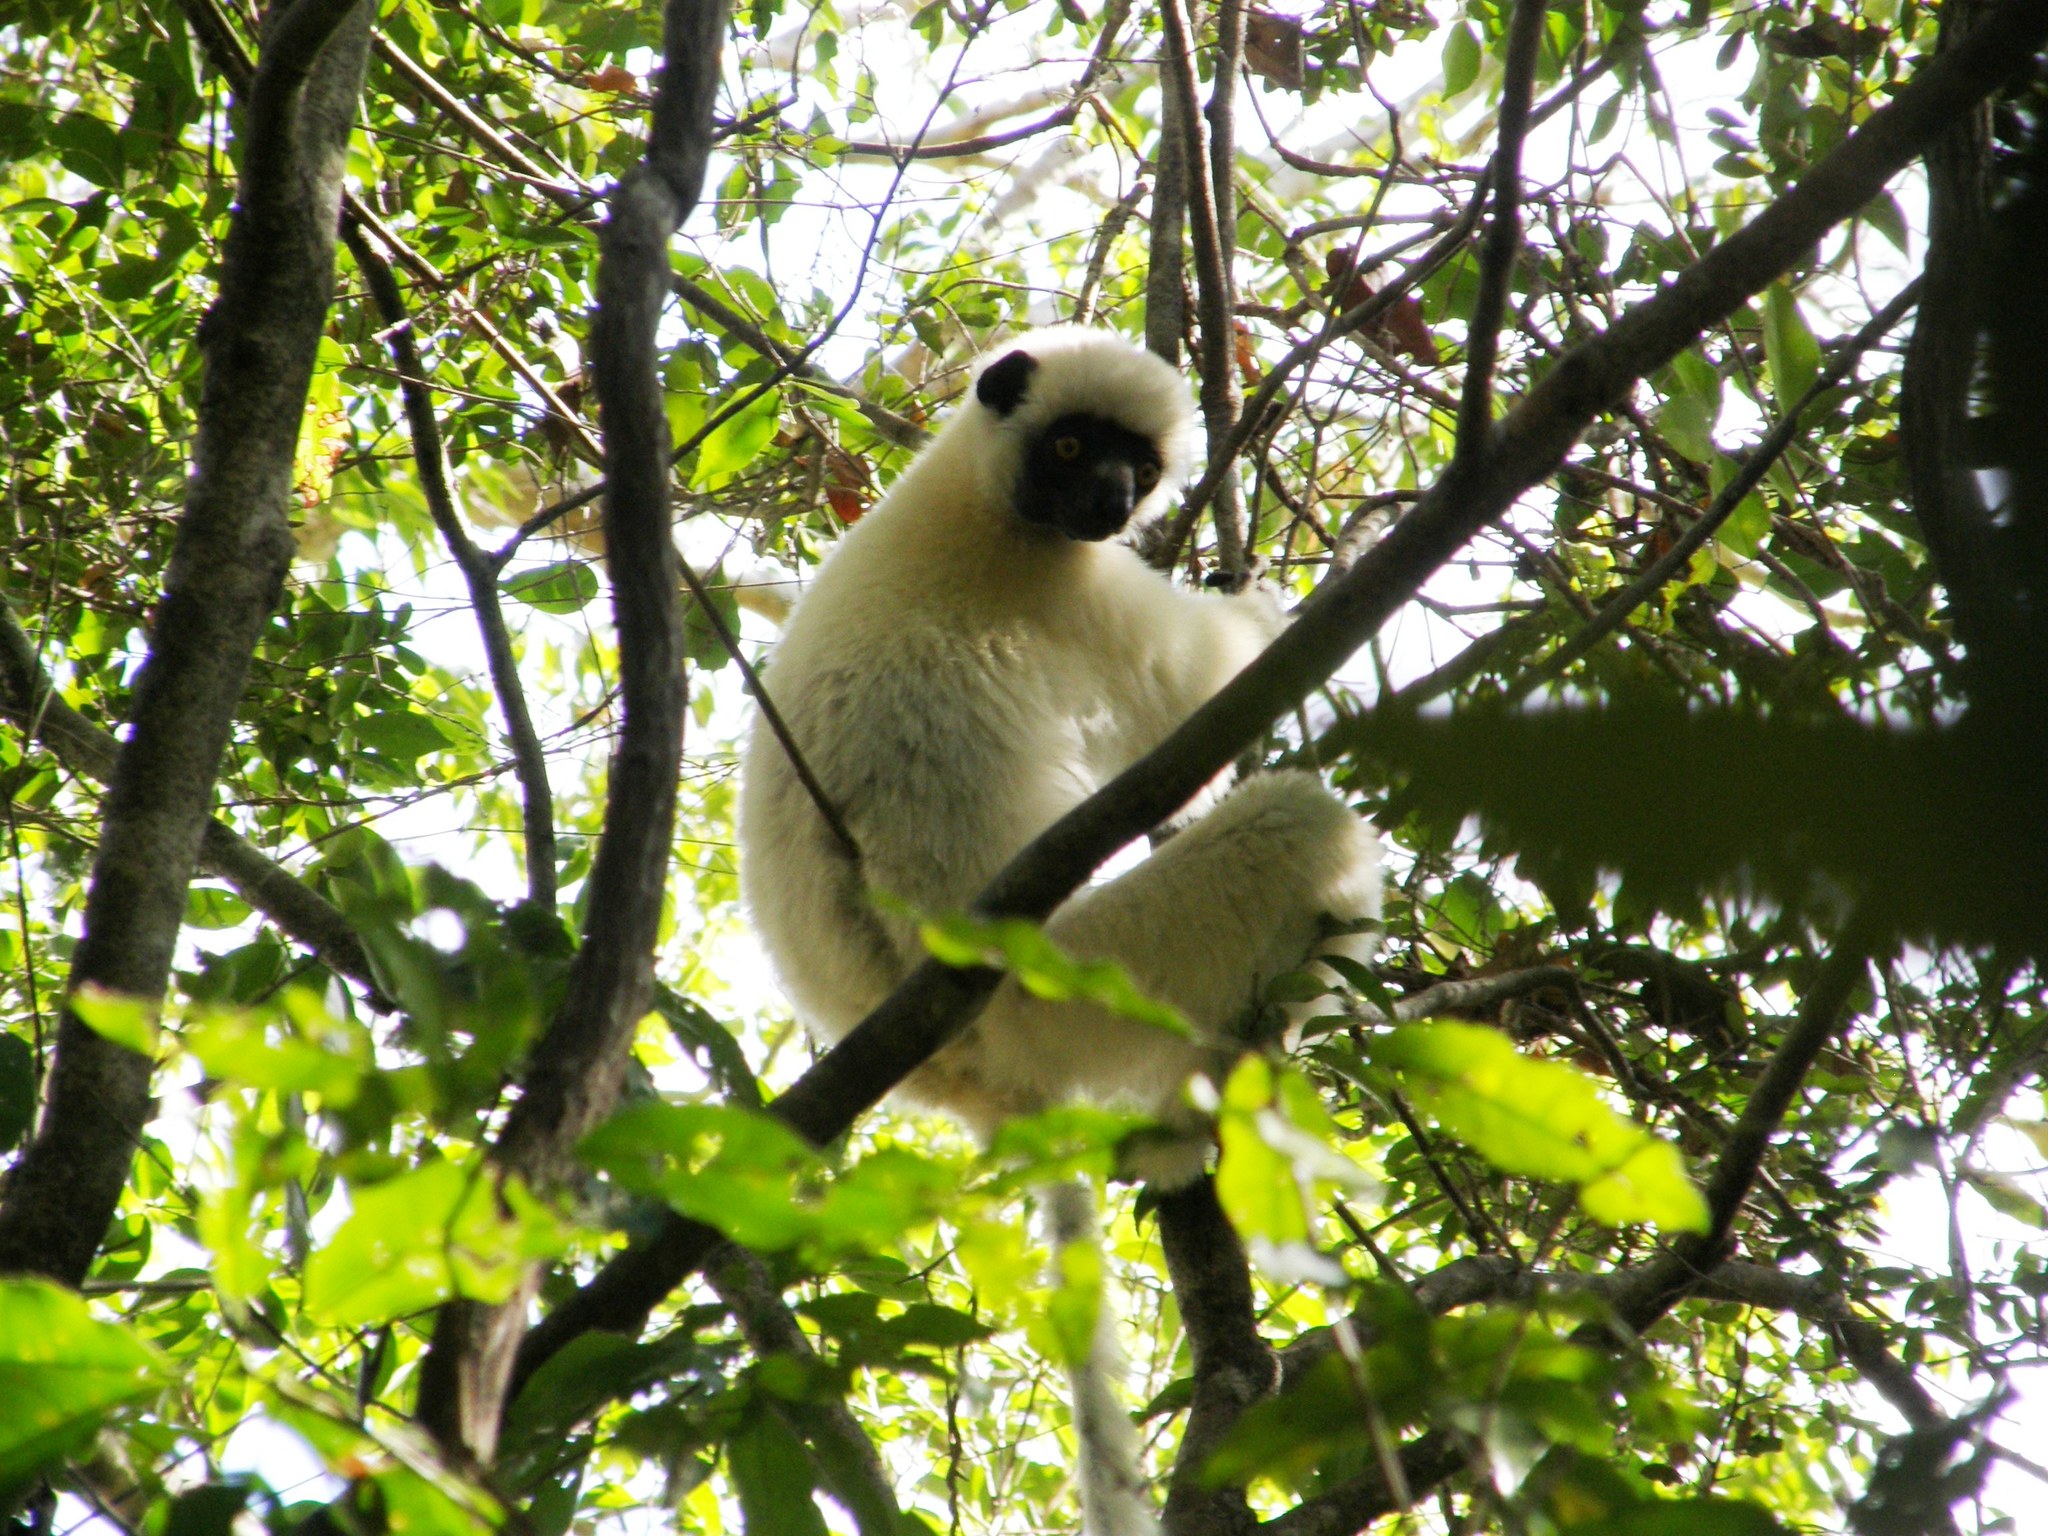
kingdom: Animalia
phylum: Chordata
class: Mammalia
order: Primates
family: Indriidae
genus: Propithecus
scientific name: Propithecus deckenii
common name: Decken's sifaka
